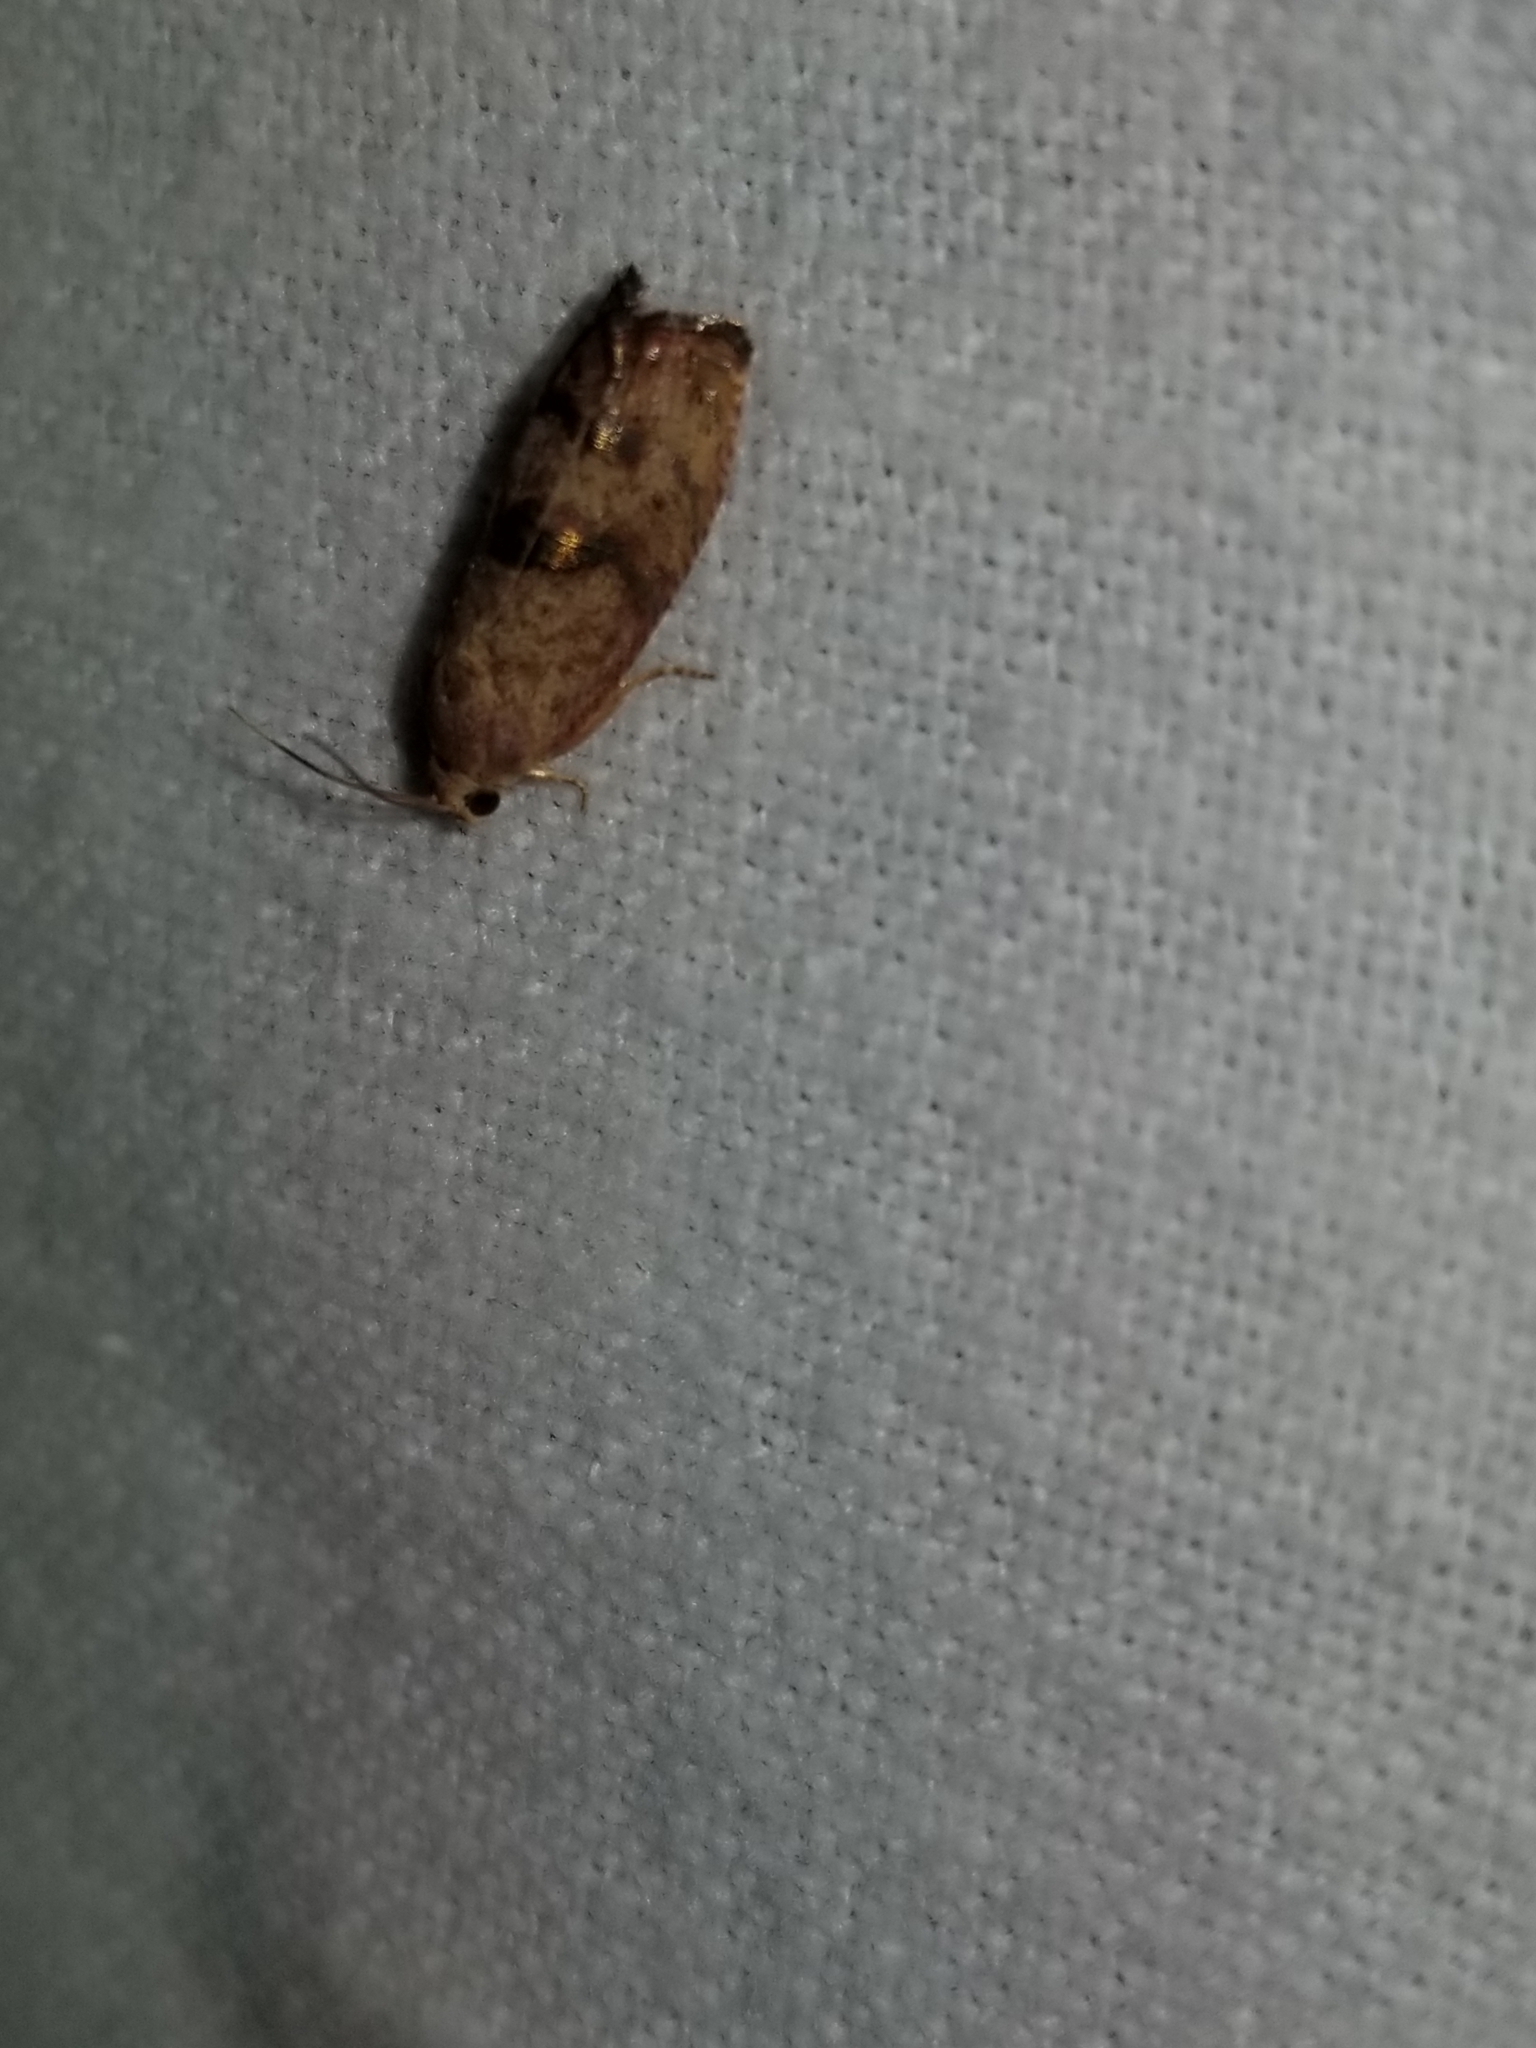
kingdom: Animalia
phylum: Arthropoda
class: Insecta
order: Lepidoptera
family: Tortricidae
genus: Cydia
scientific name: Cydia latiferreana
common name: Filbertworm moth
